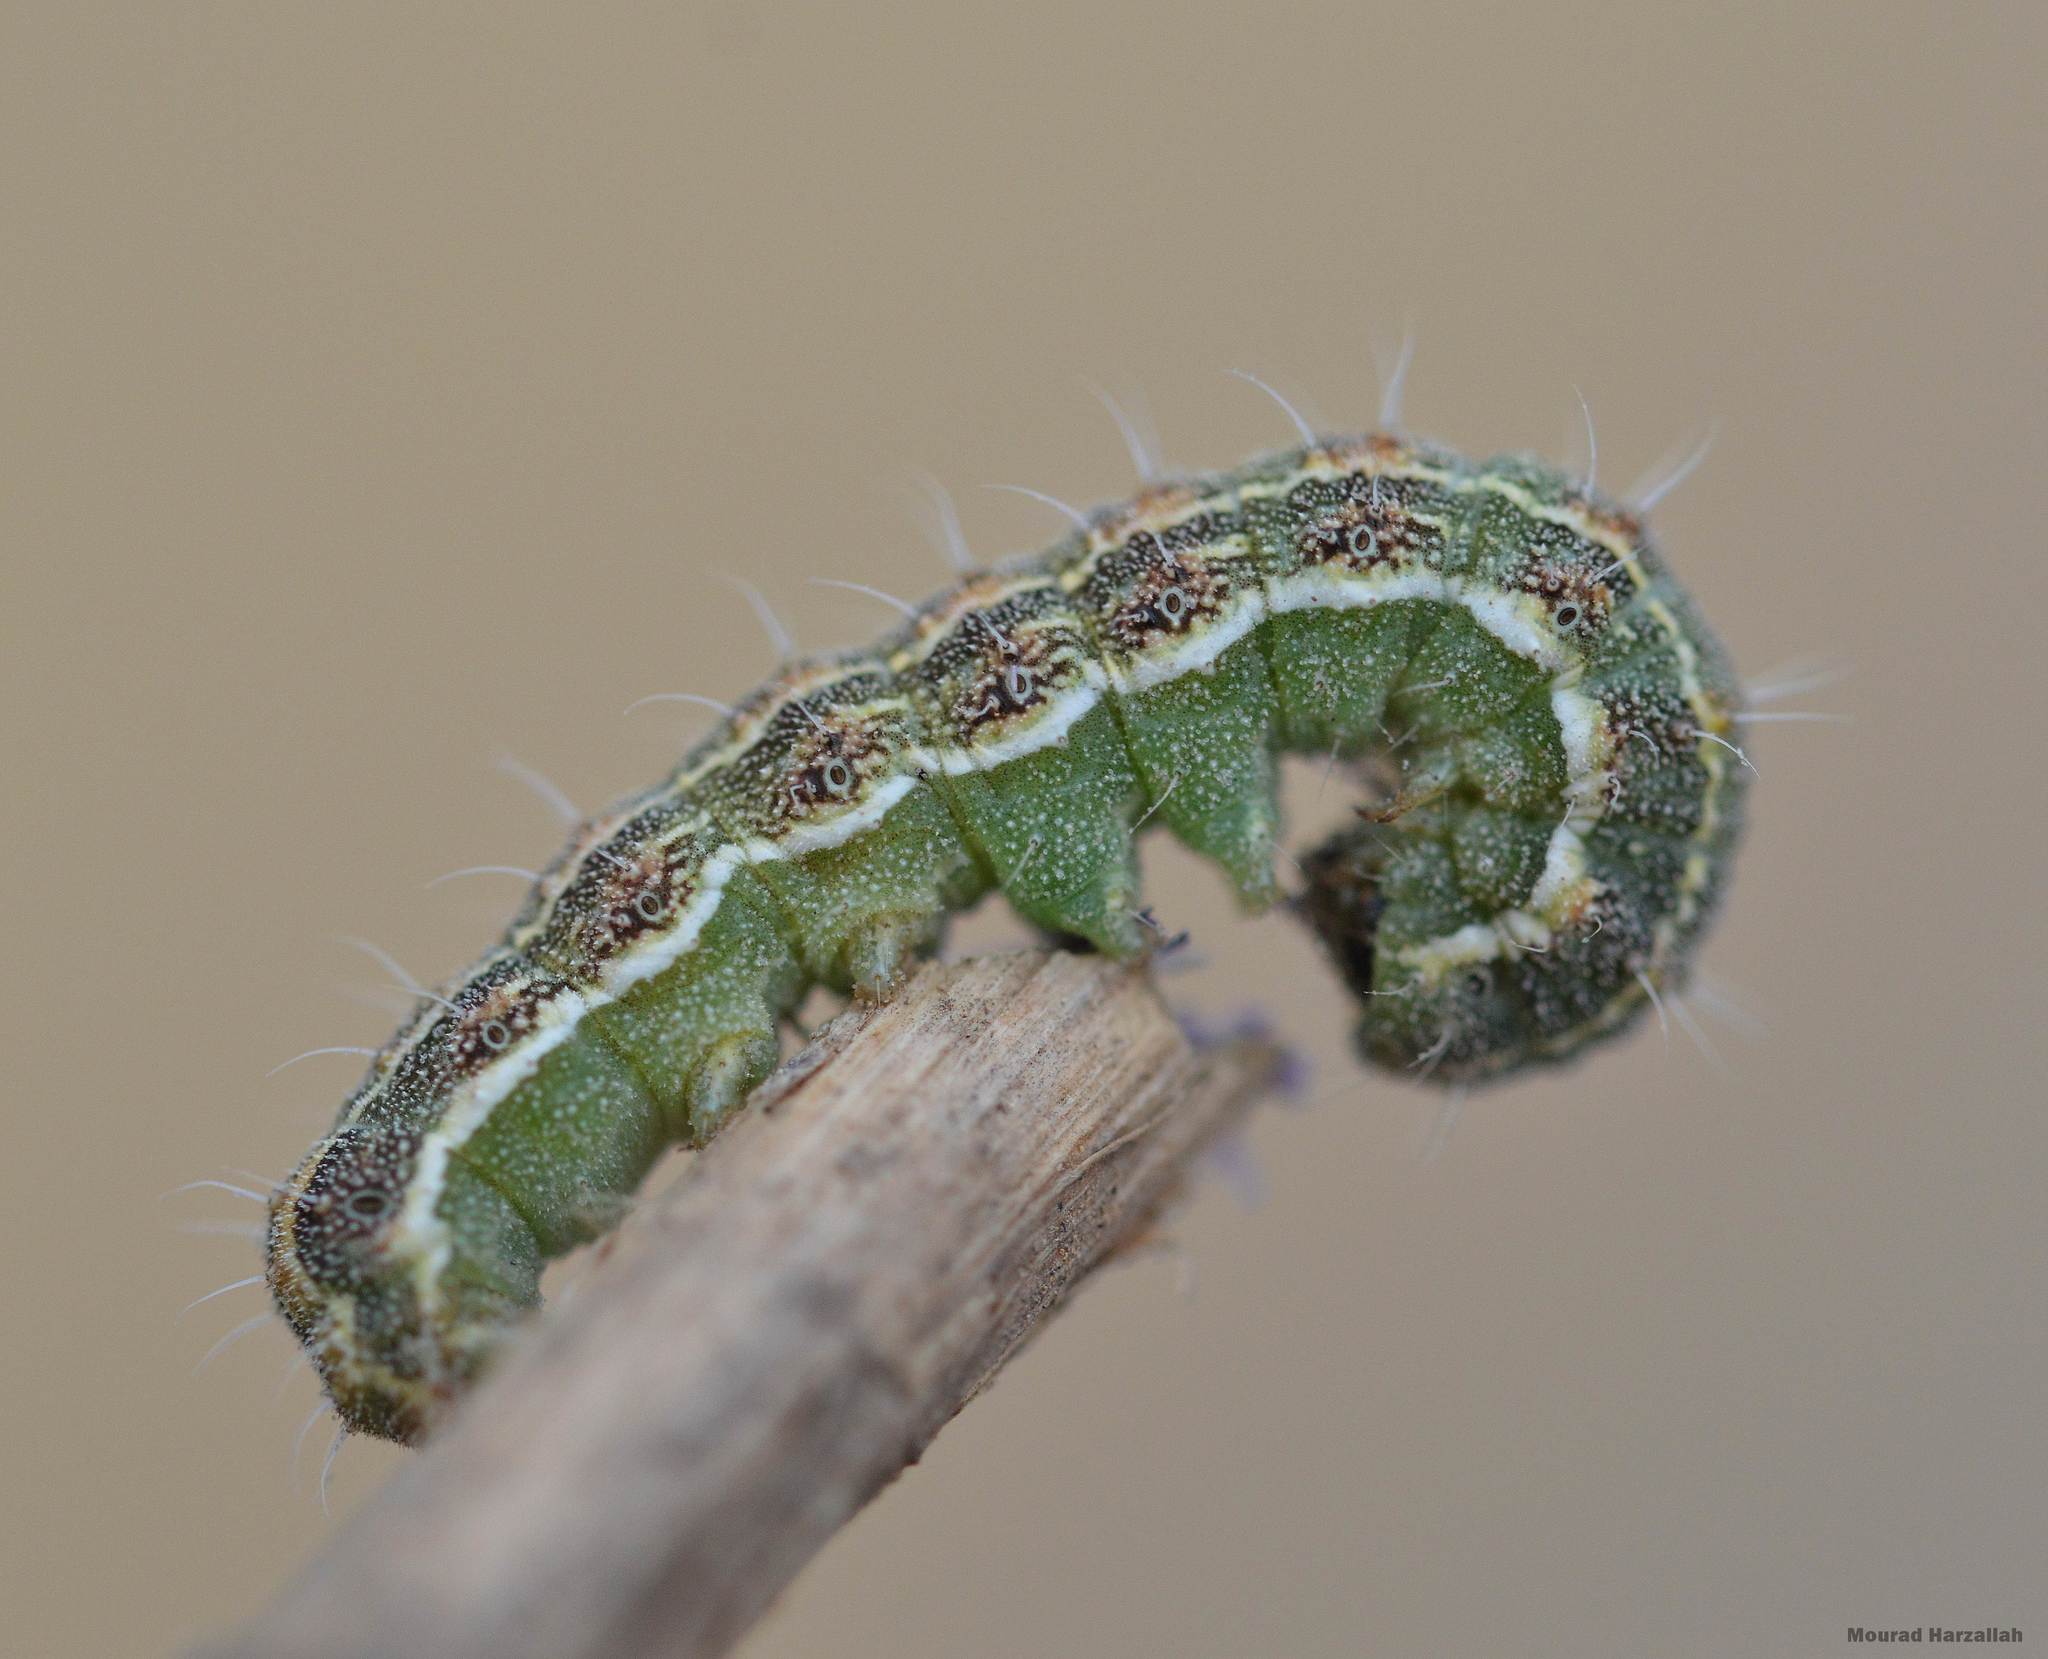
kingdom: Animalia
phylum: Arthropoda
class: Insecta
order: Lepidoptera
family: Noctuidae
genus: Helicoverpa
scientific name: Helicoverpa armigera
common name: Cotton bollworm
